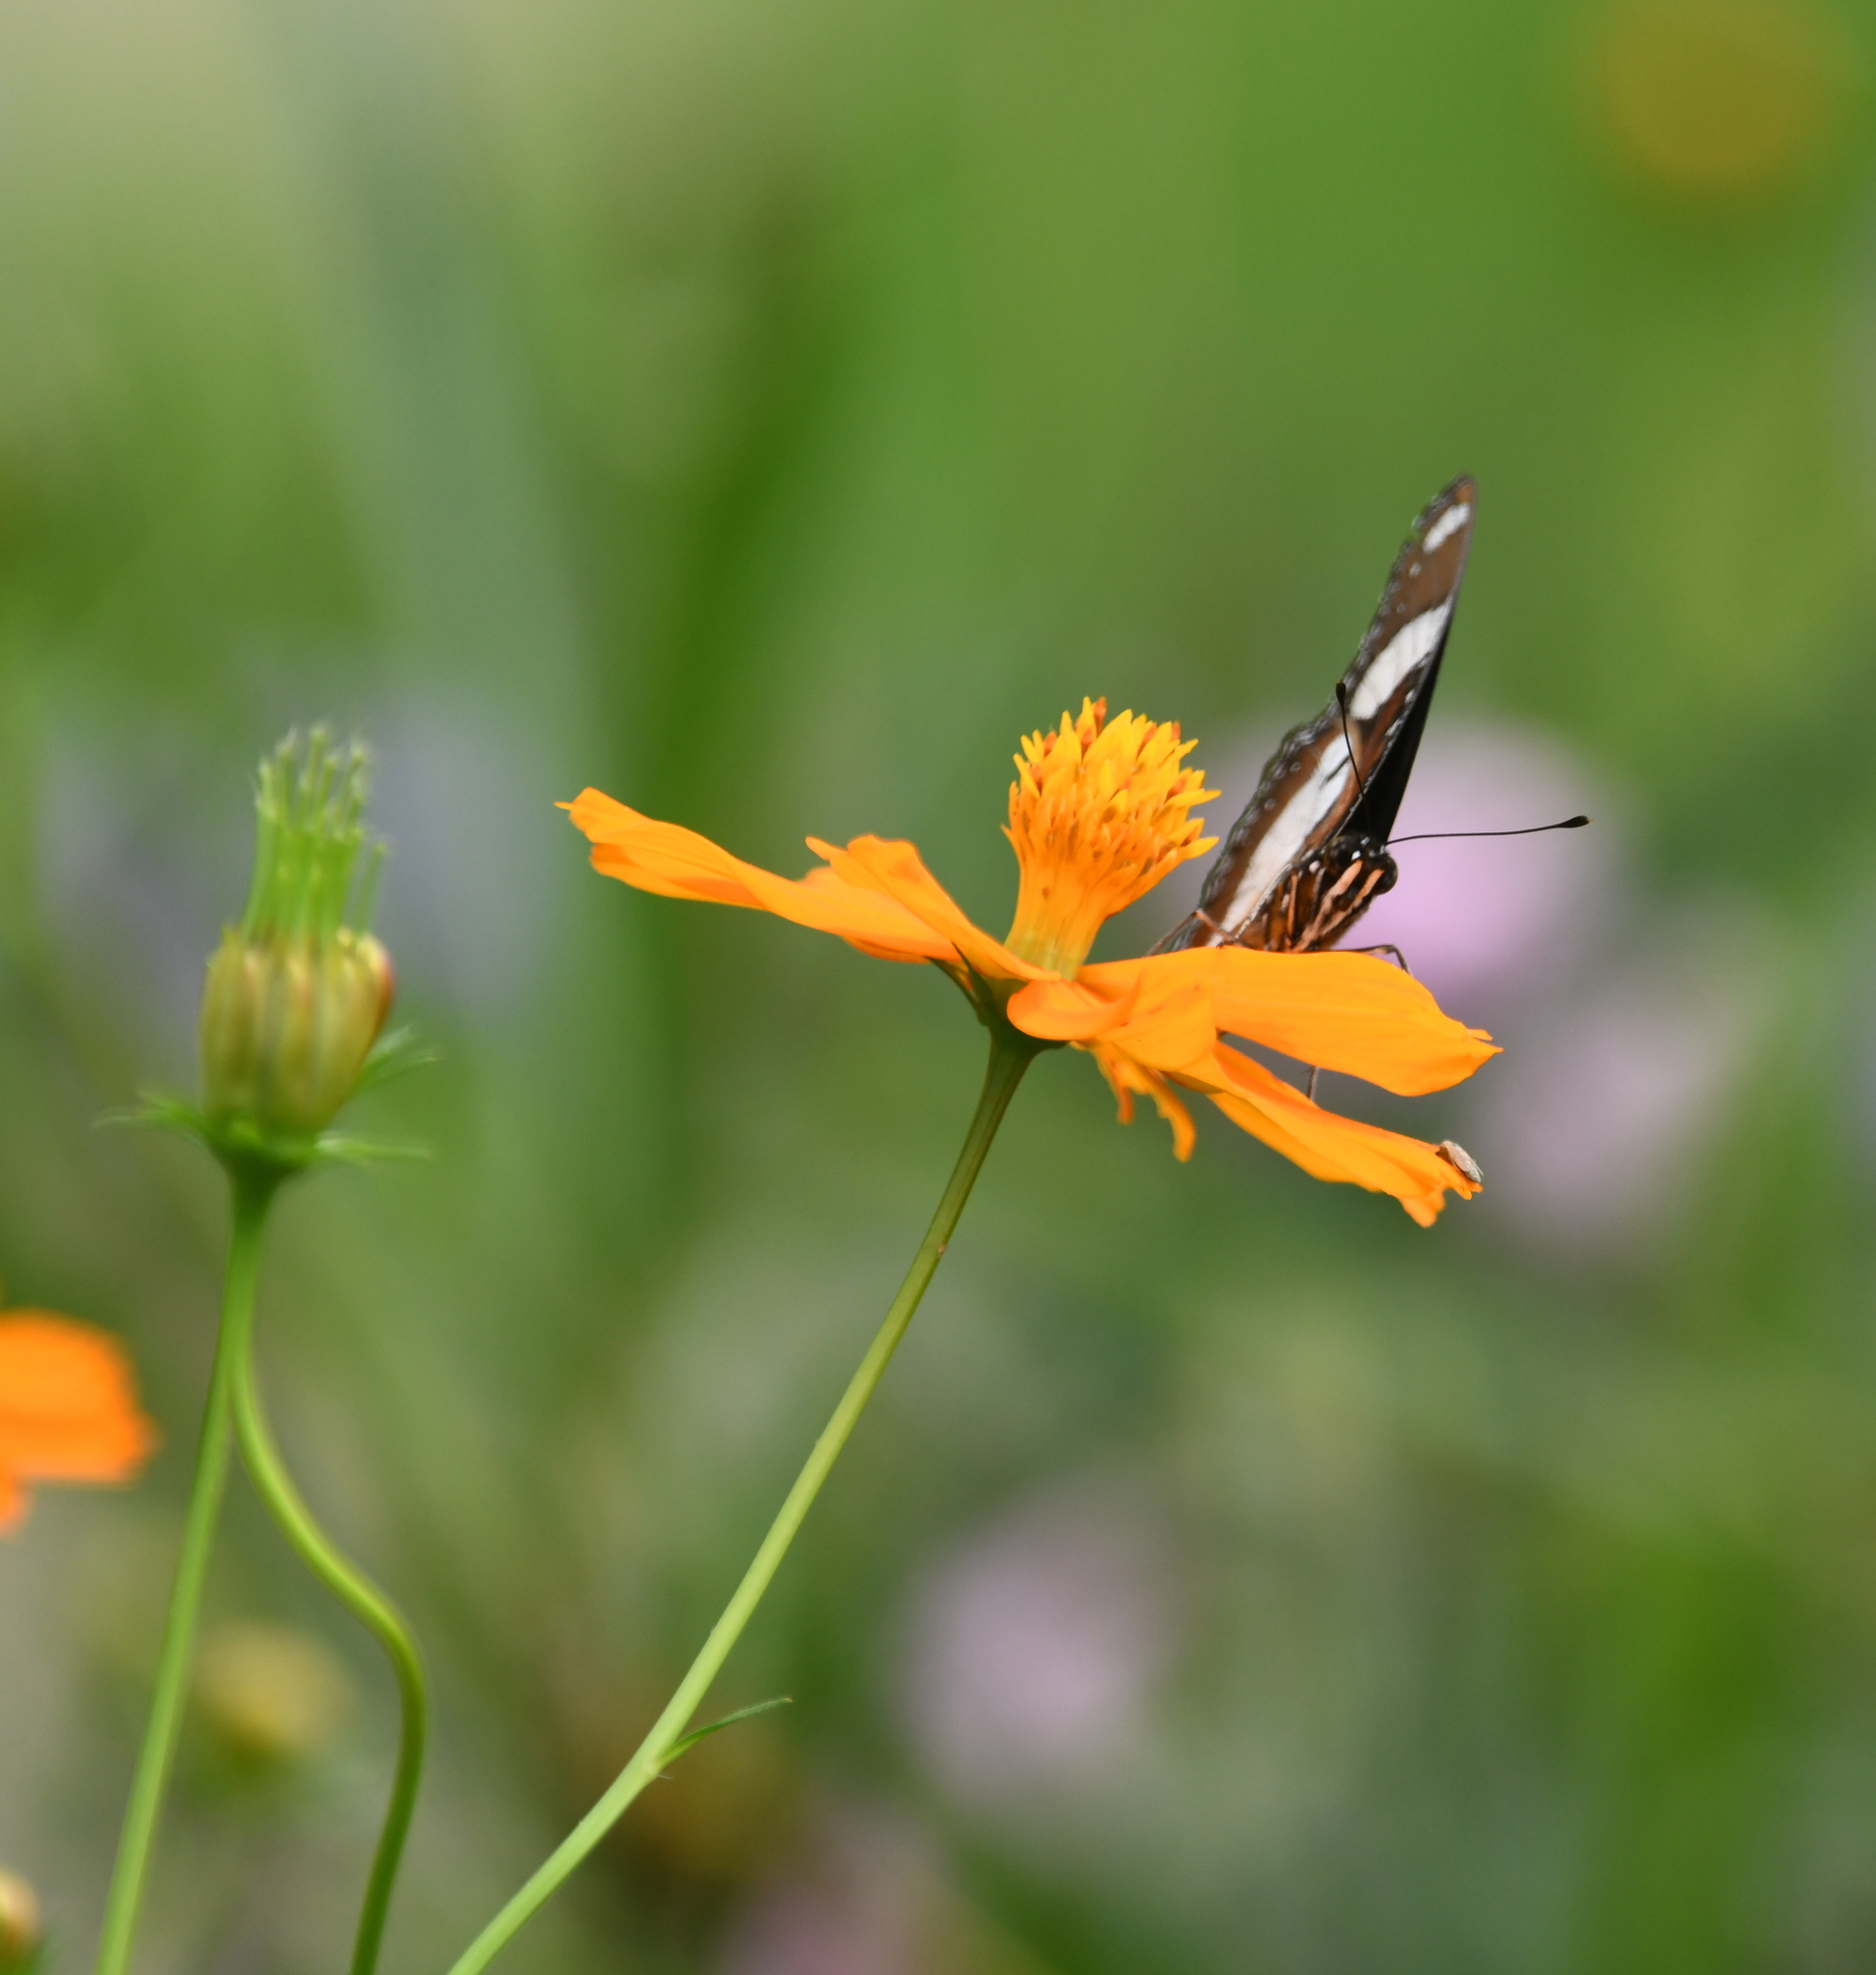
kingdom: Animalia
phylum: Arthropoda
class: Insecta
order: Lepidoptera
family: Nymphalidae
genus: Hypolimnas
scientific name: Hypolimnas misippus
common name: False plain tiger
